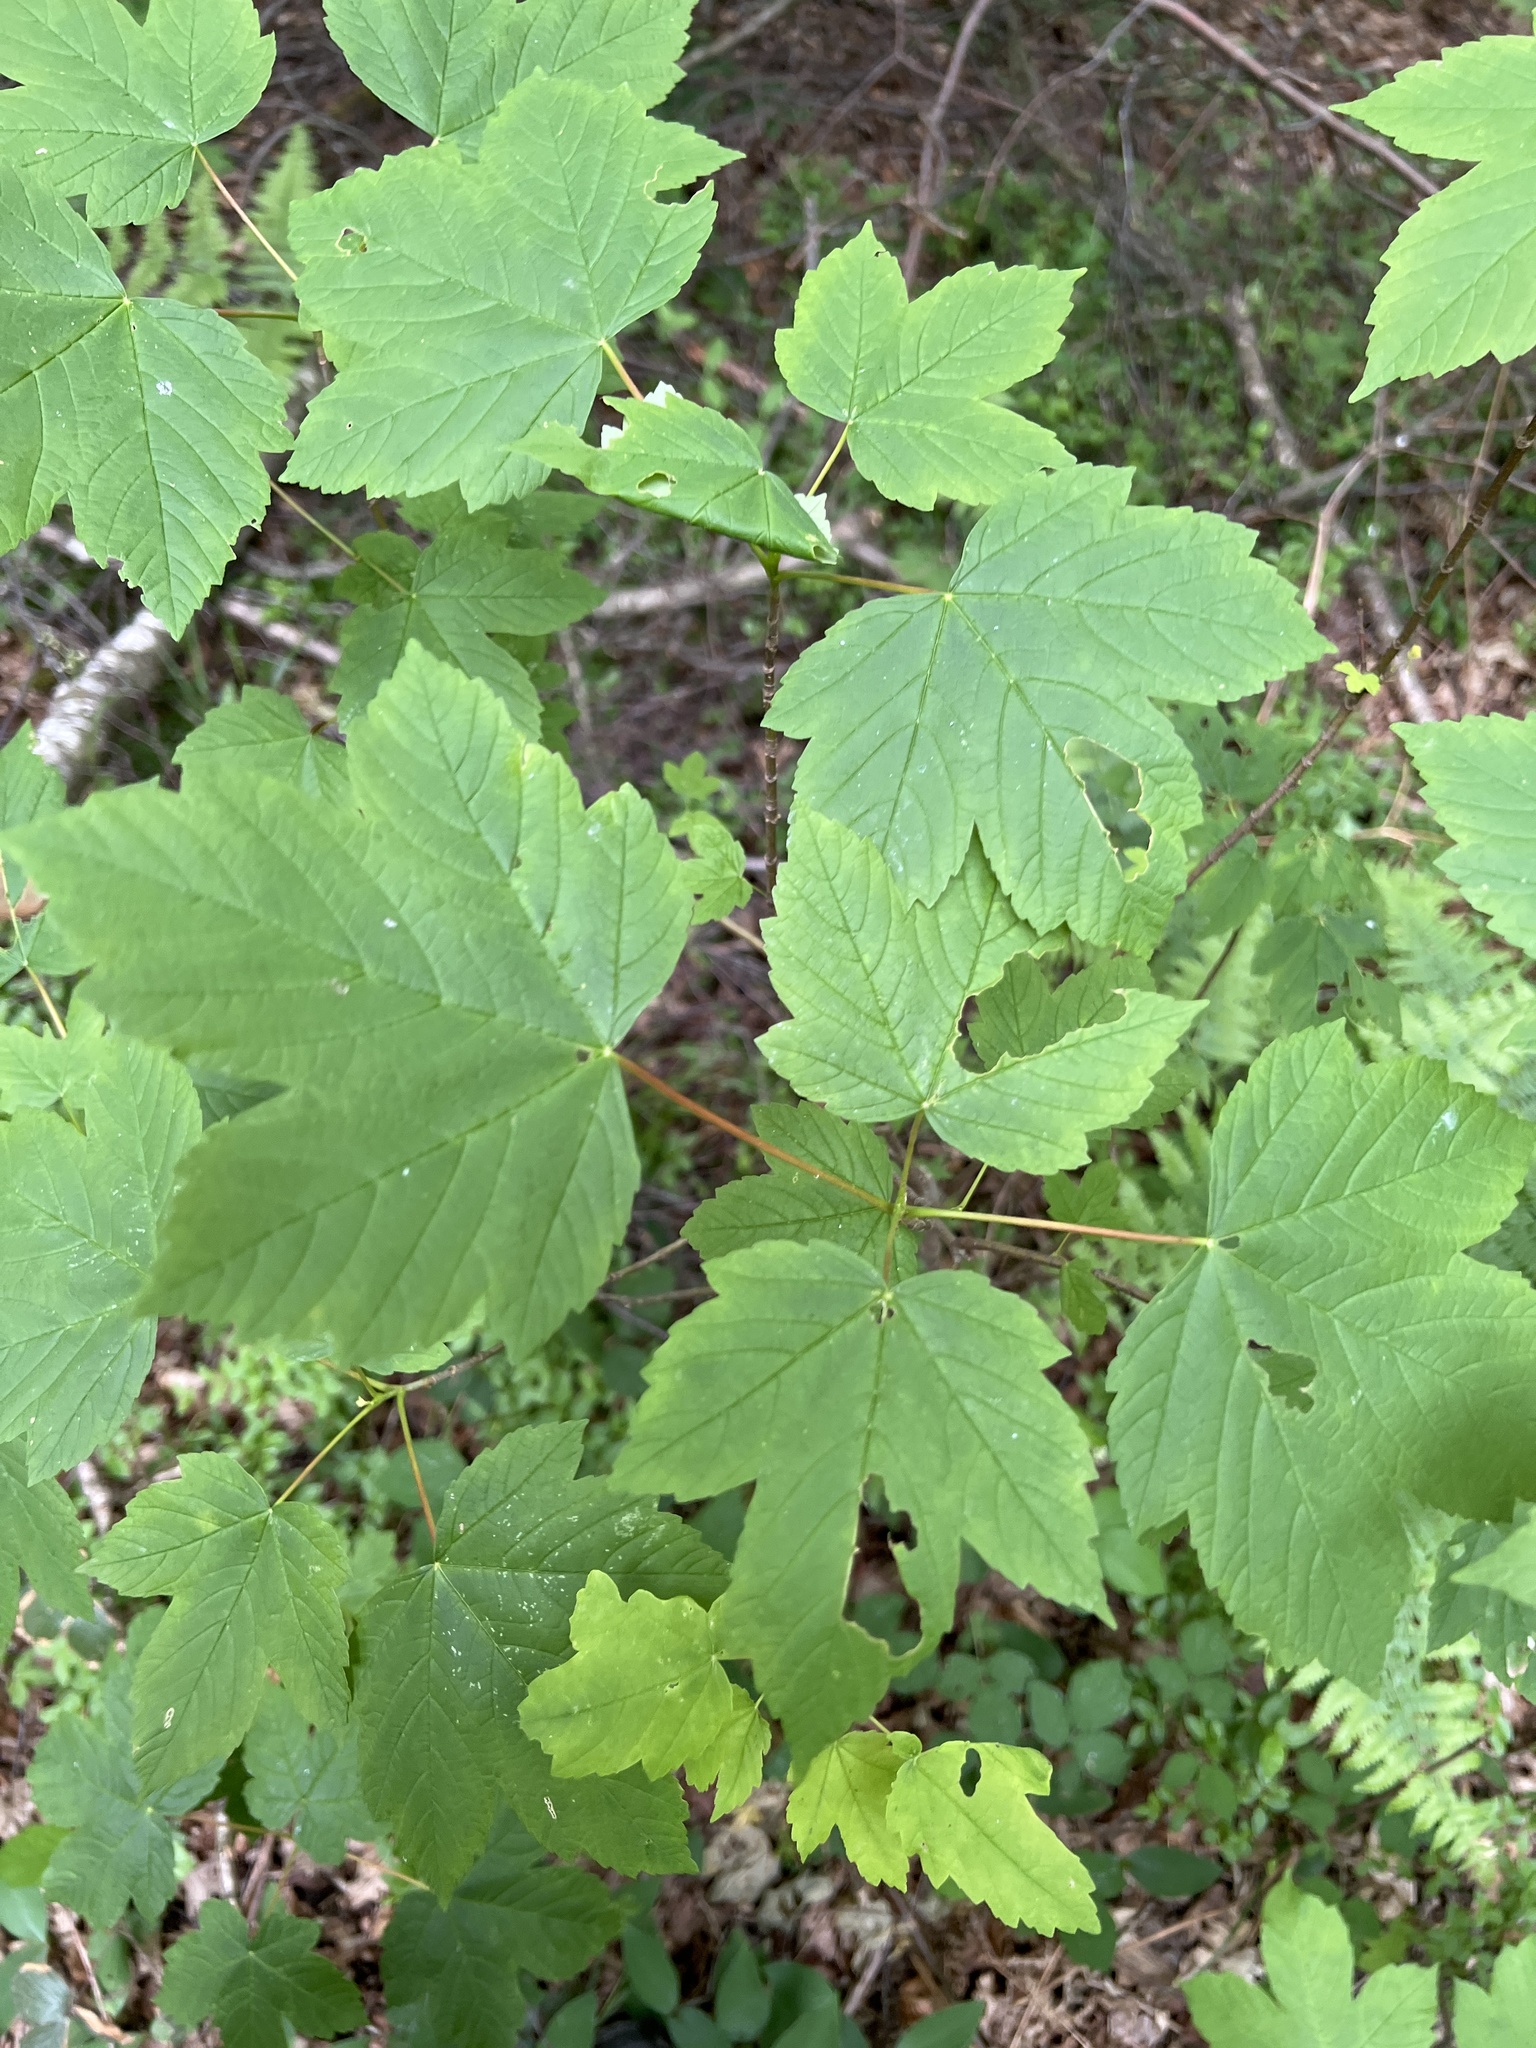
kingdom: Plantae
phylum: Tracheophyta
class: Magnoliopsida
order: Sapindales
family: Sapindaceae
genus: Acer
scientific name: Acer pseudoplatanus
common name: Sycamore
